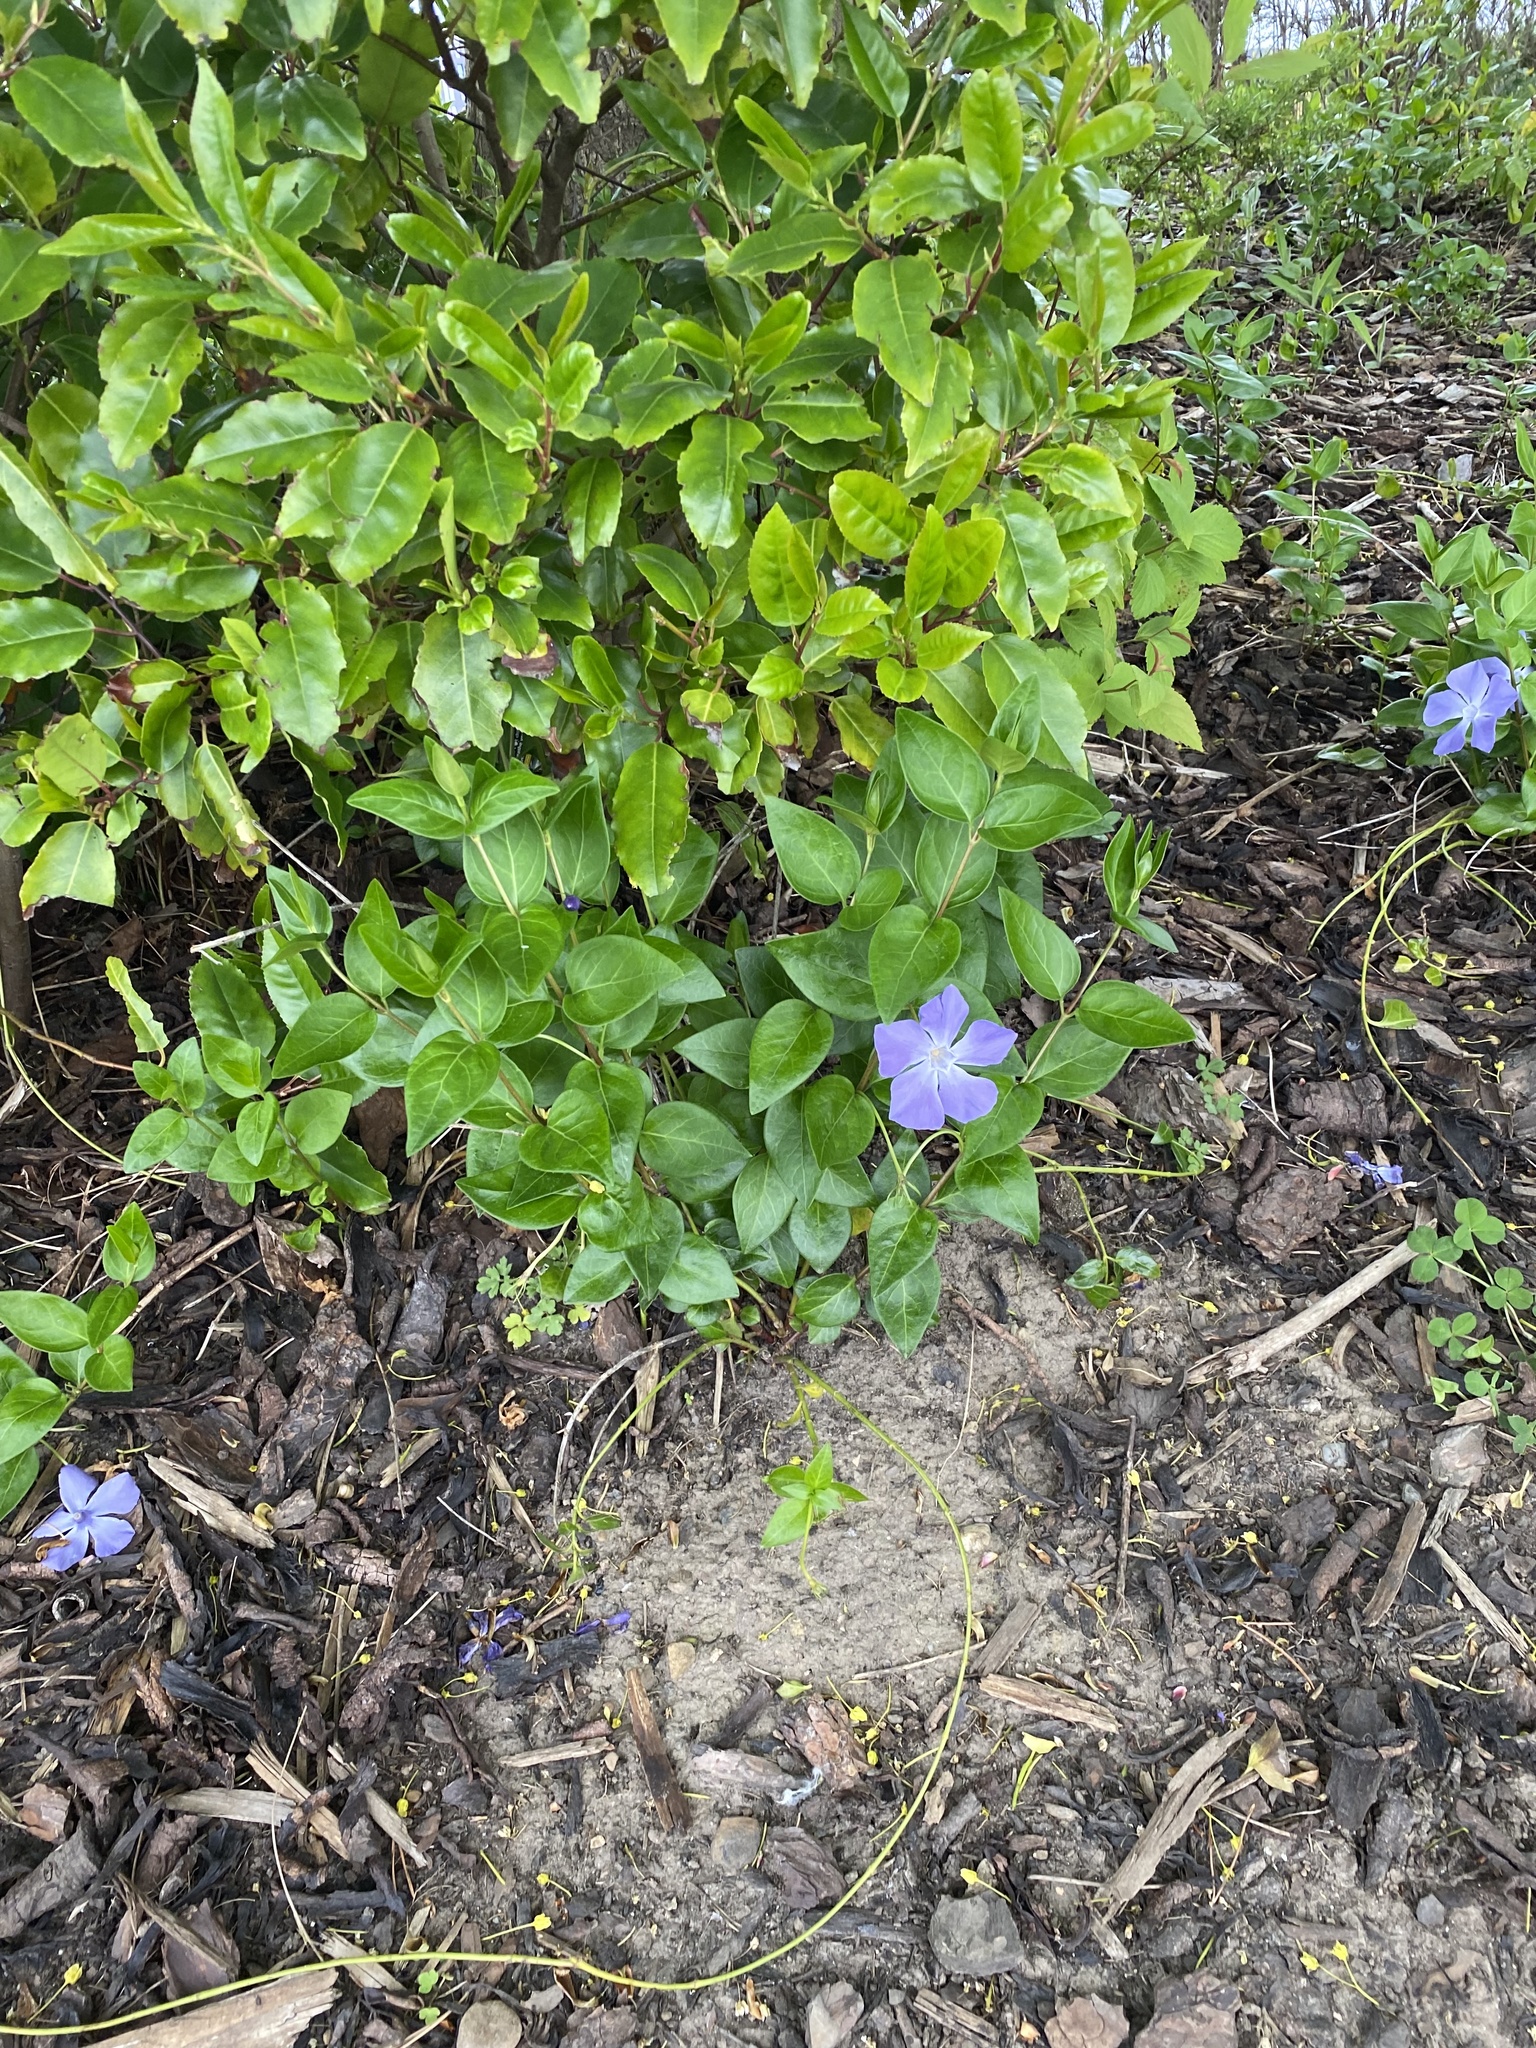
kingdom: Plantae
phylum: Tracheophyta
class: Magnoliopsida
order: Gentianales
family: Apocynaceae
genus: Vinca
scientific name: Vinca major
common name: Greater periwinkle
